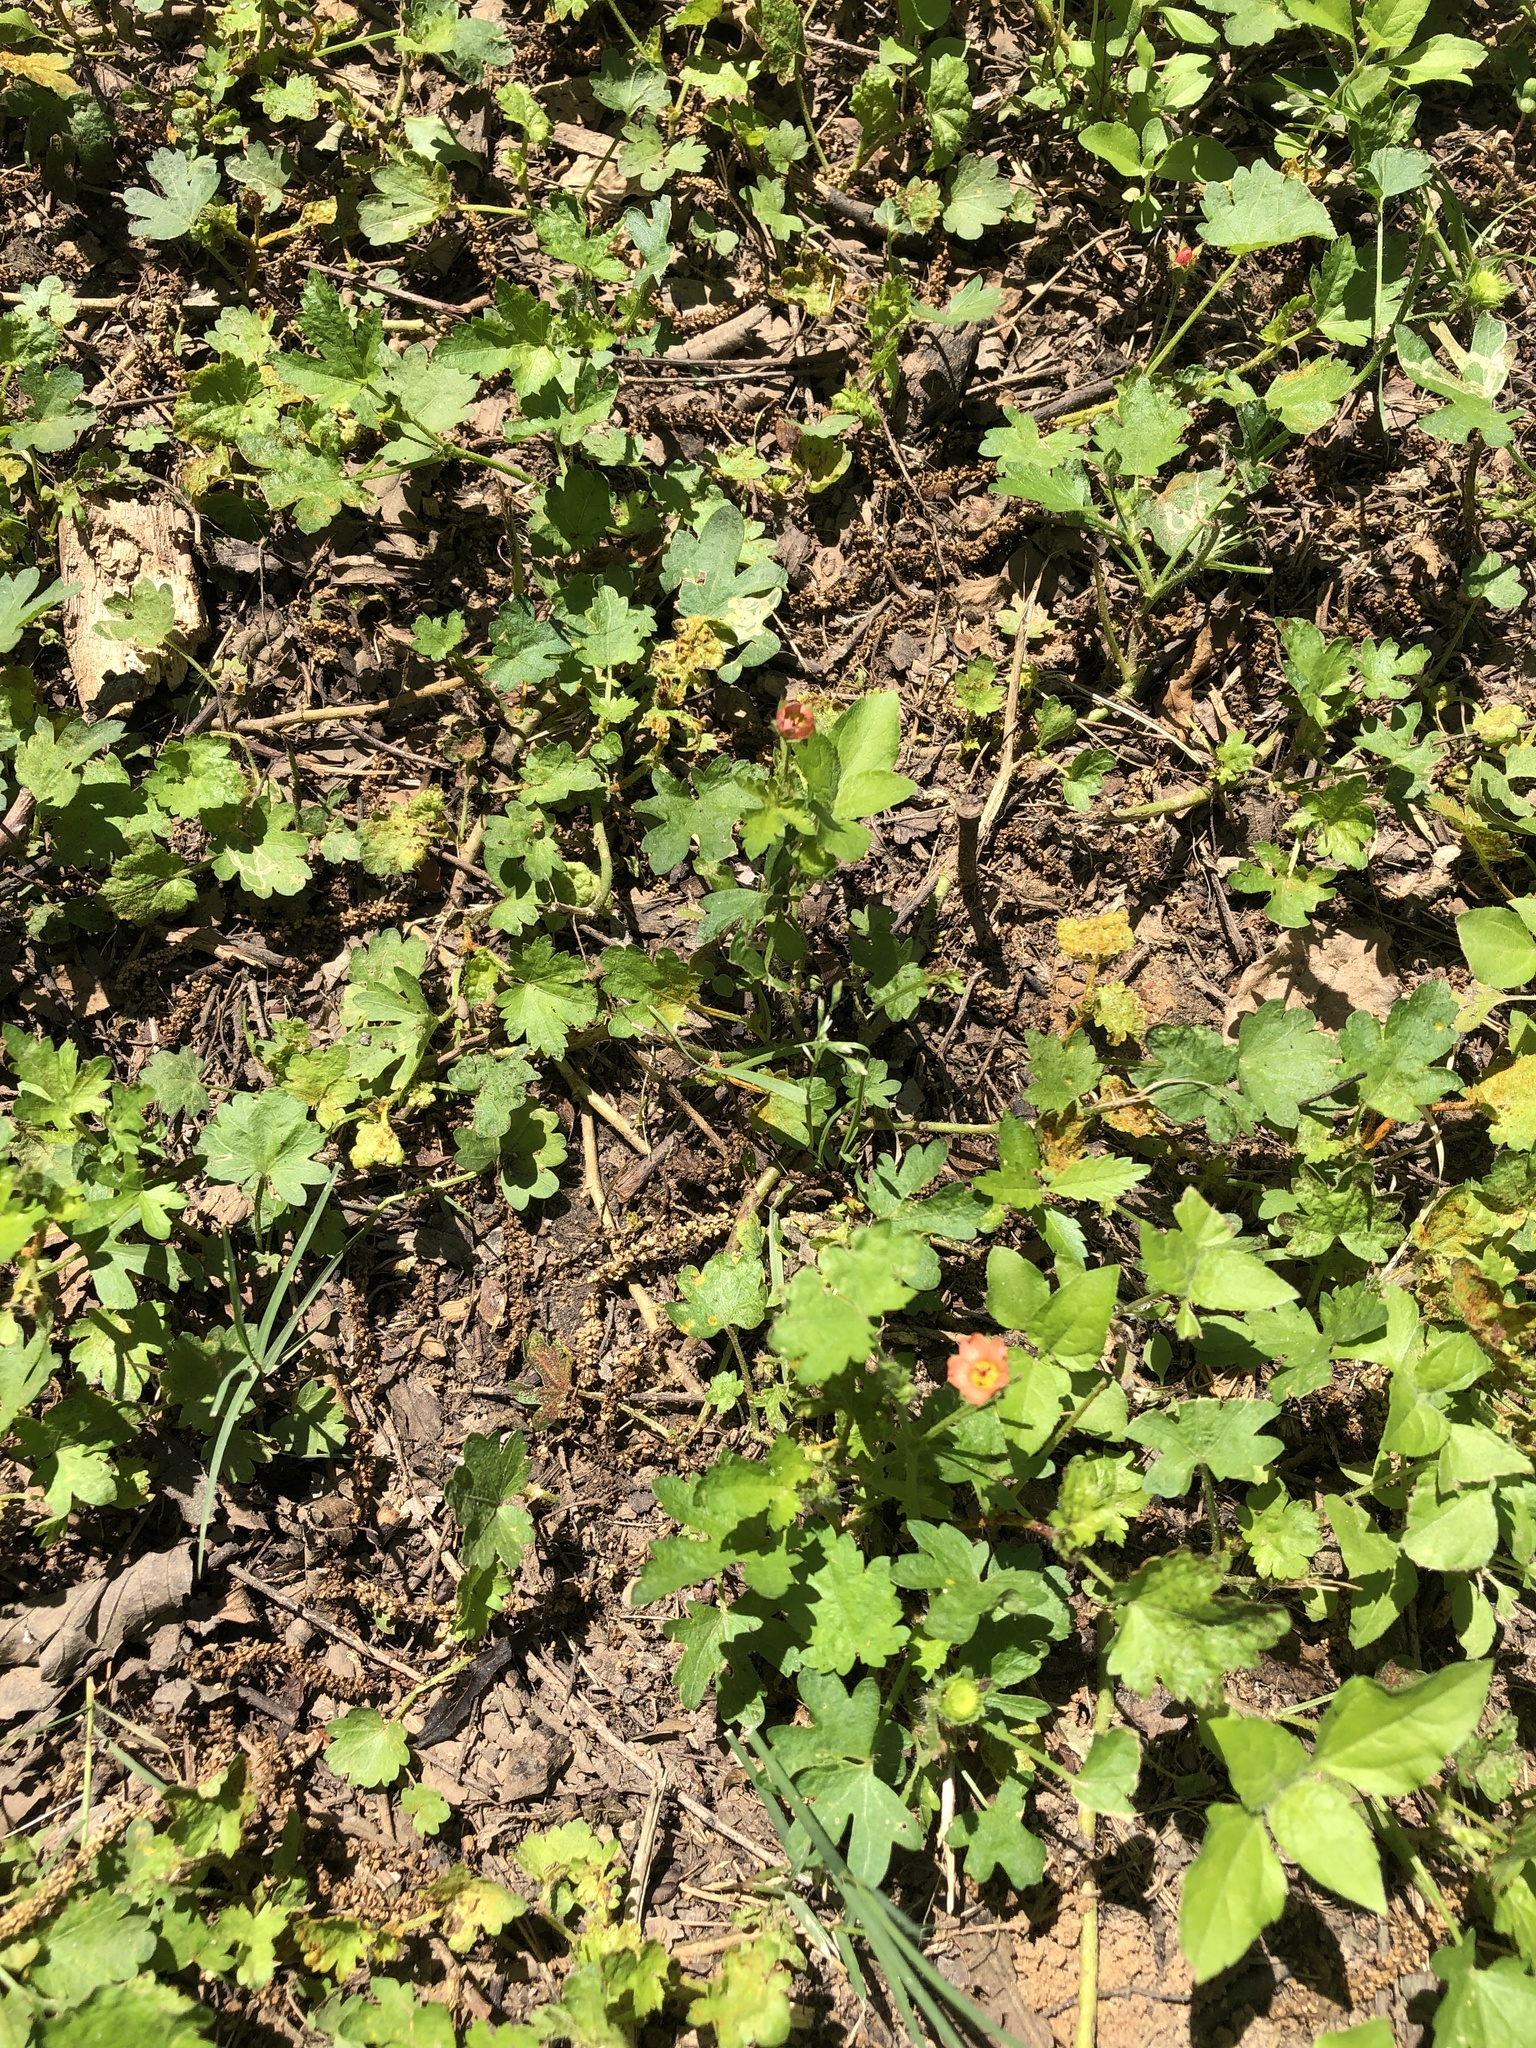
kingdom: Plantae
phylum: Tracheophyta
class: Magnoliopsida
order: Malvales
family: Malvaceae
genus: Modiola
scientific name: Modiola caroliniana
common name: Carolina bristlemallow
